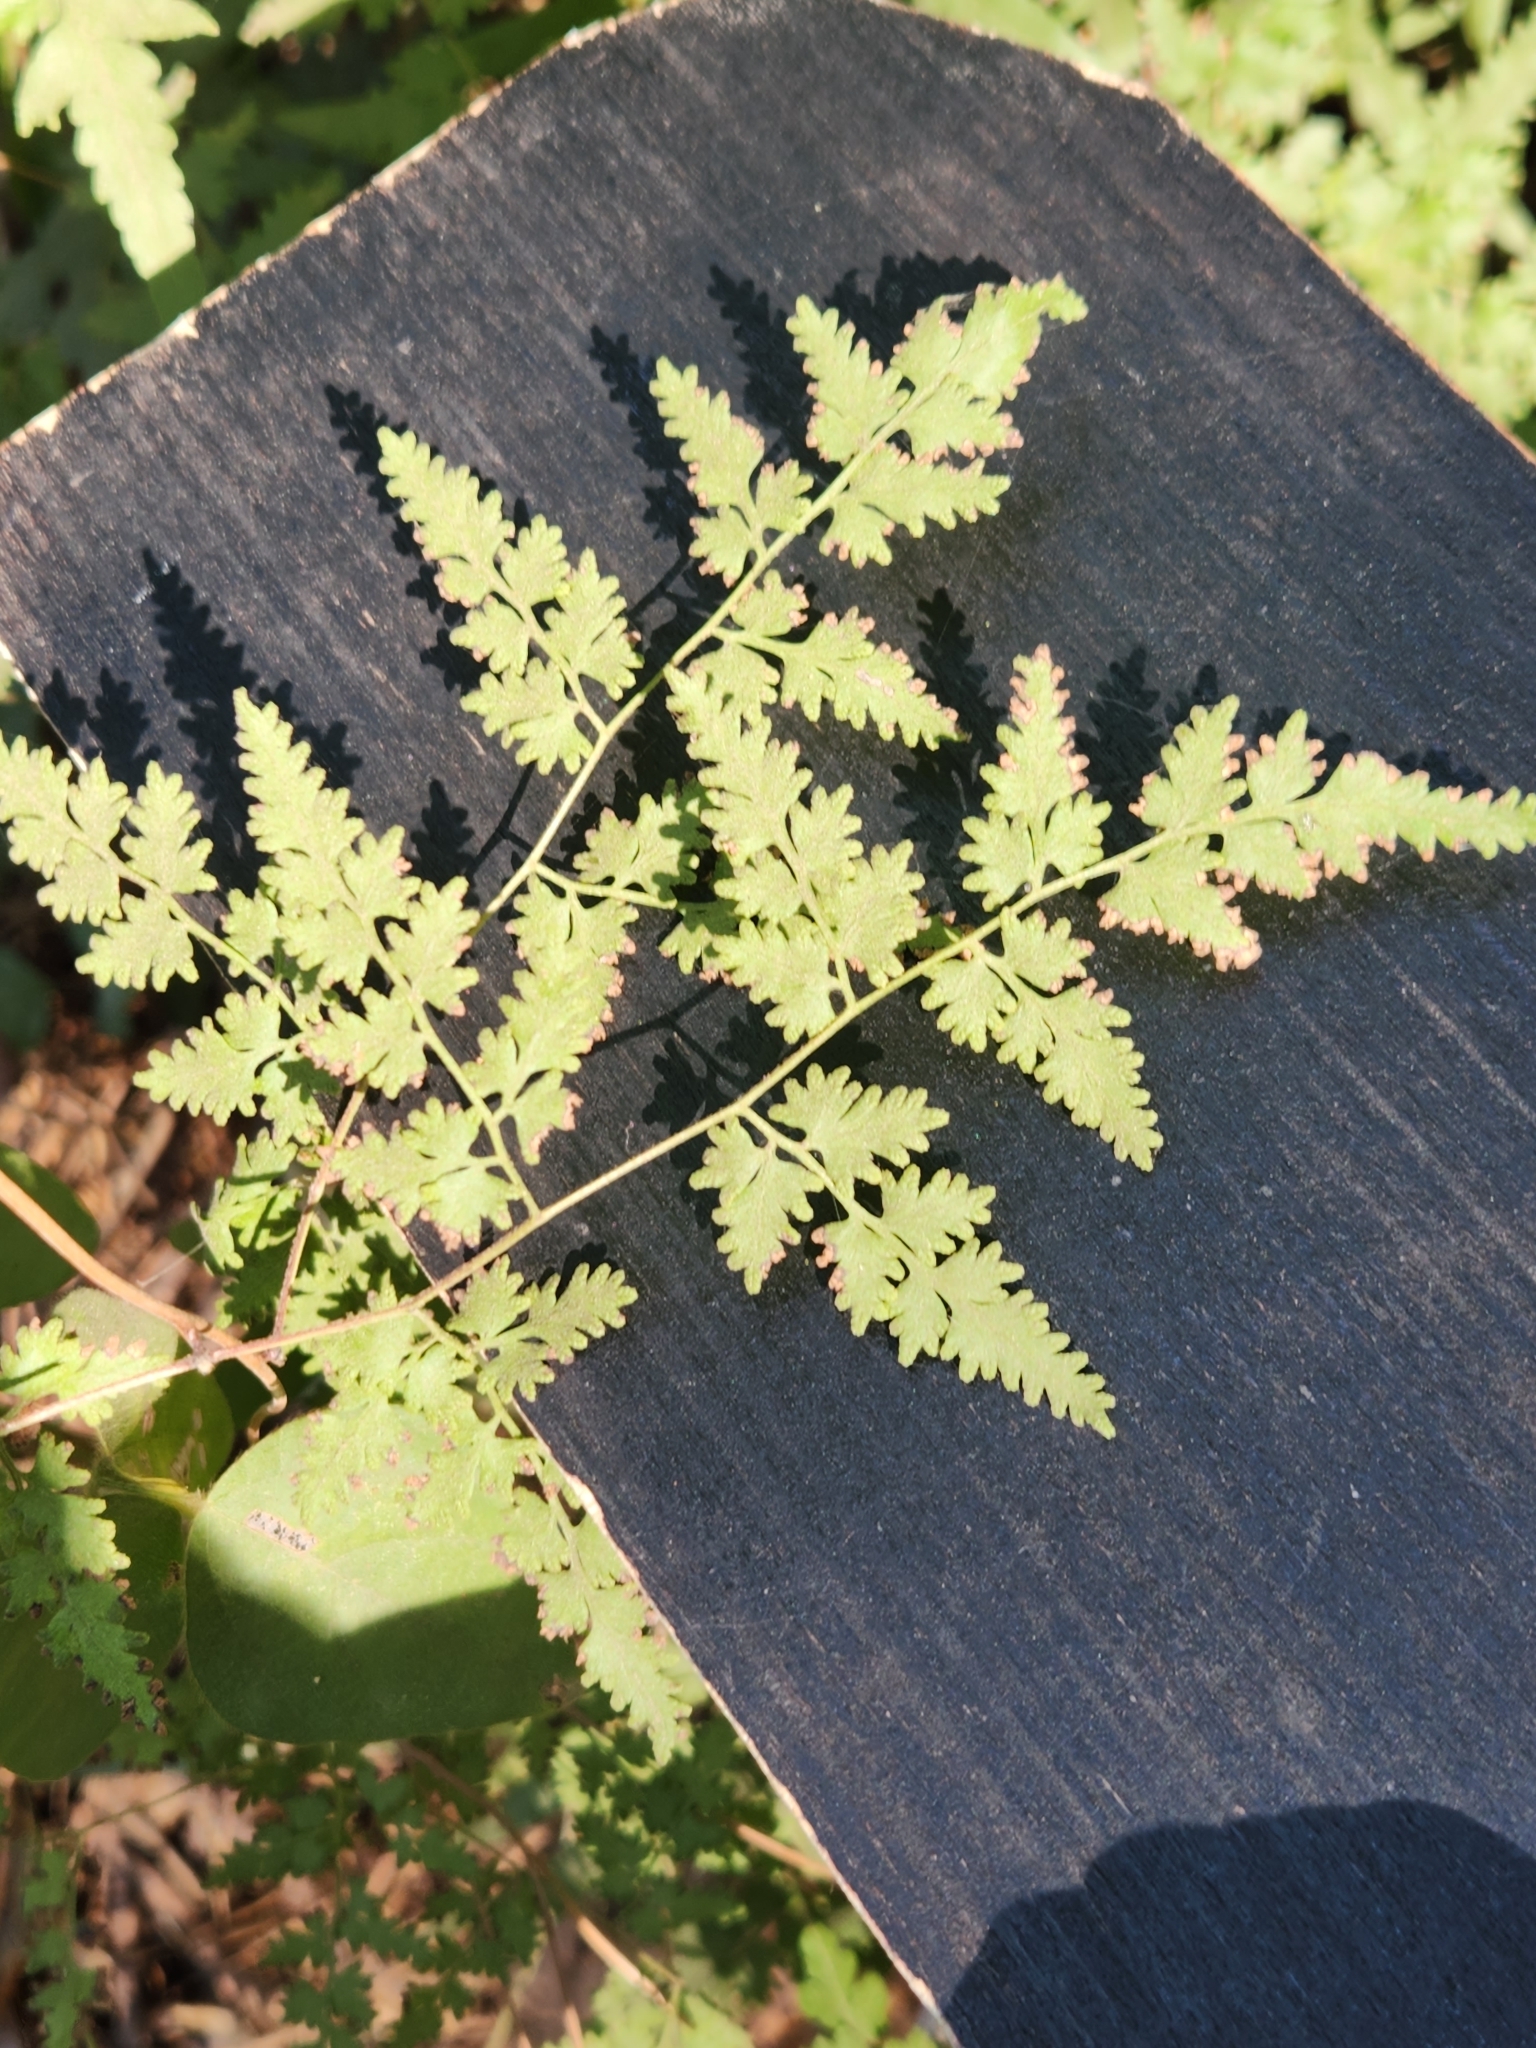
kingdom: Plantae
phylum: Tracheophyta
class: Polypodiopsida
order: Schizaeales
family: Lygodiaceae
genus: Lygodium
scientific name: Lygodium japonicum
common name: Japanese climbing fern
